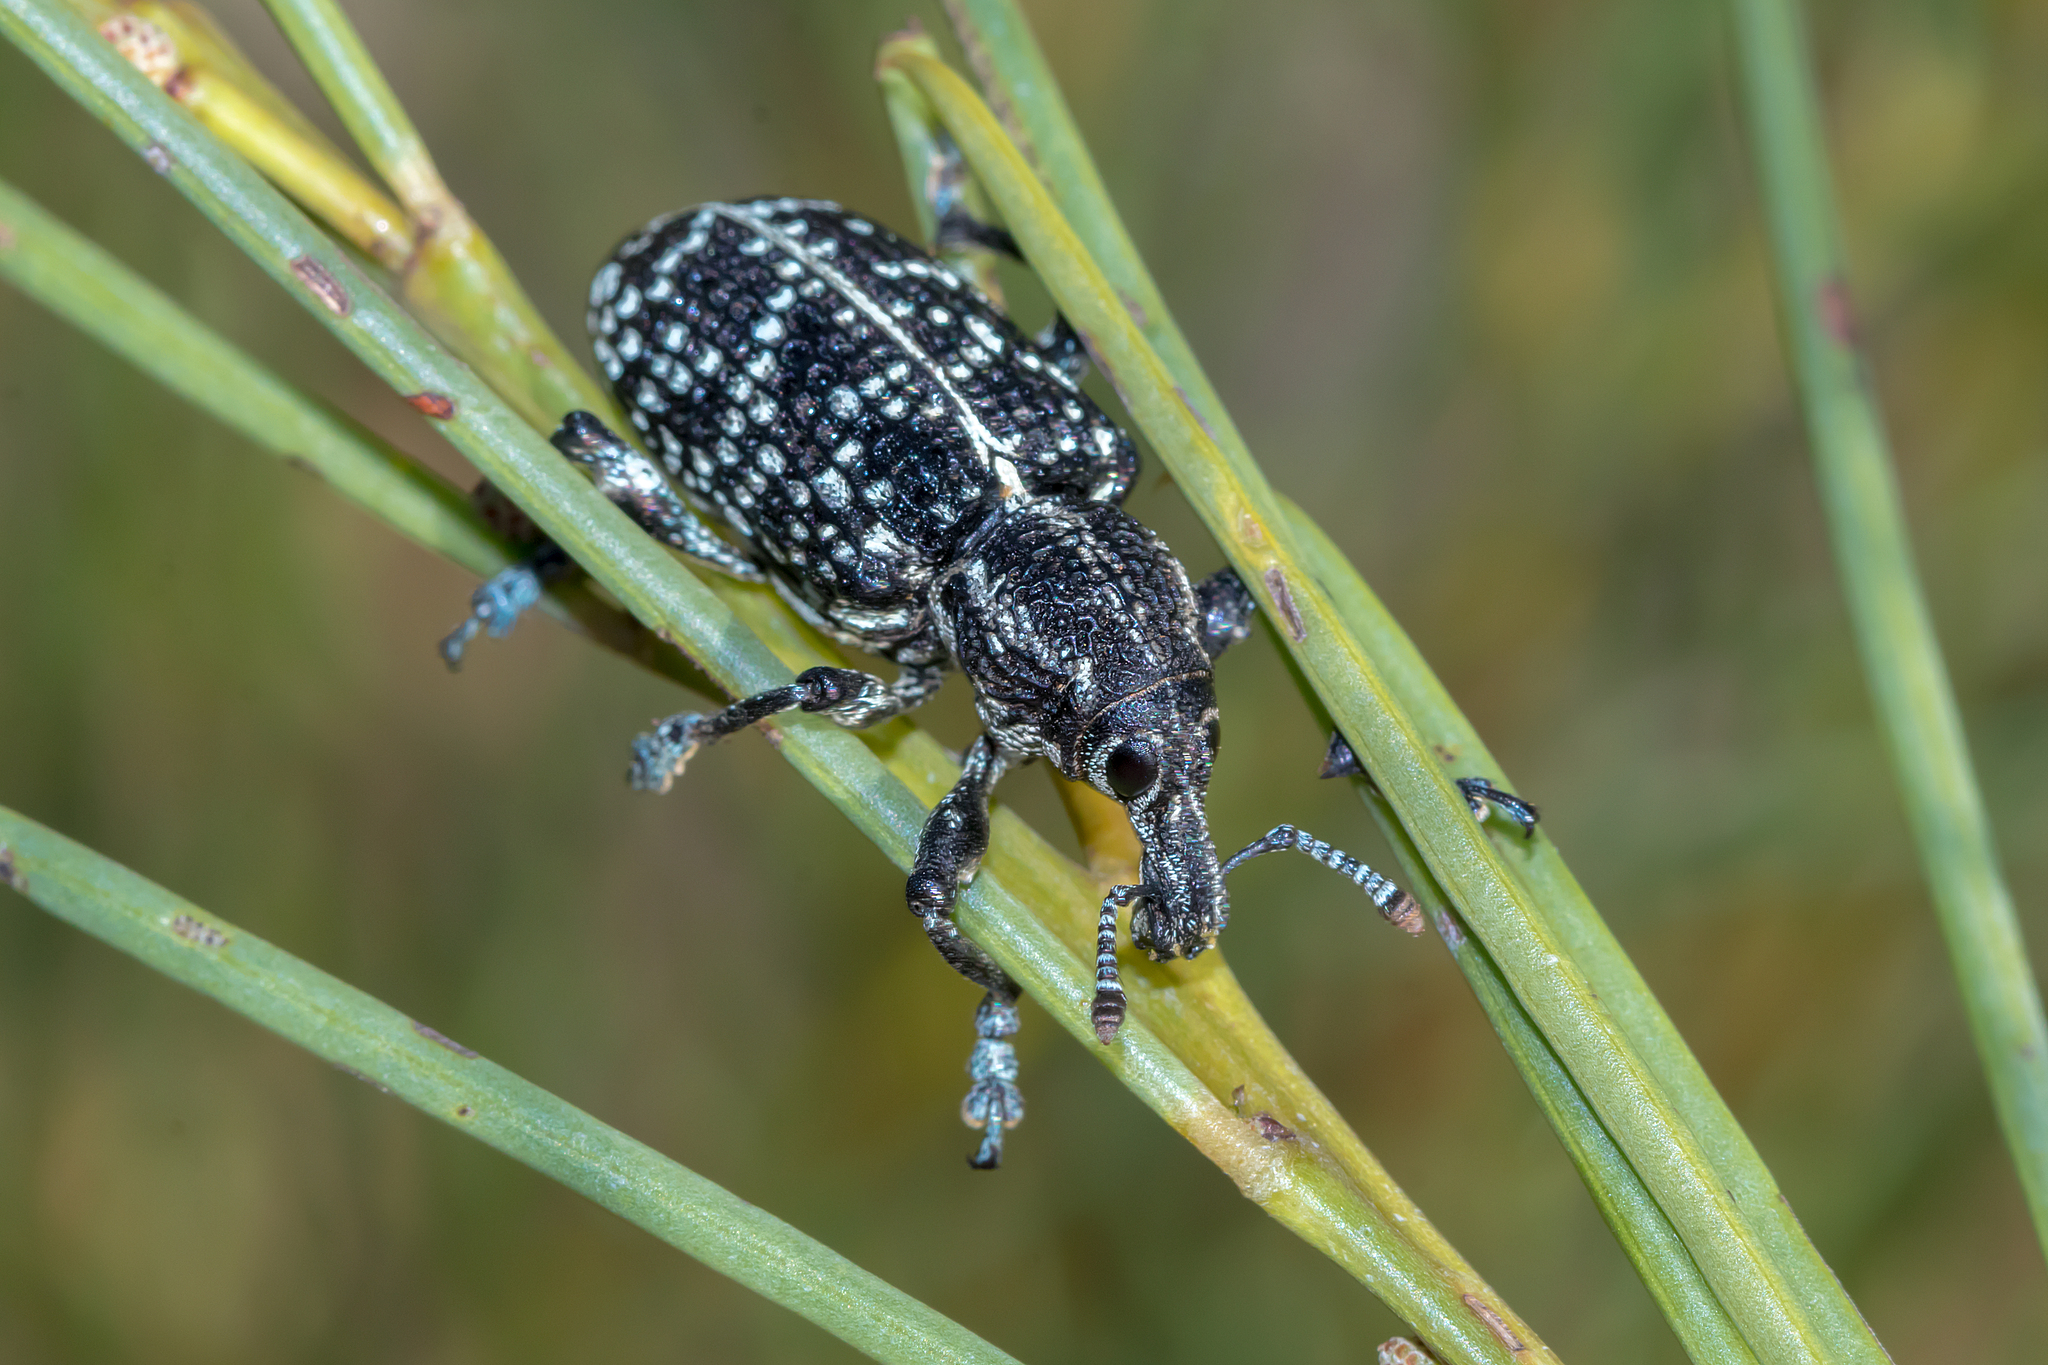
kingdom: Animalia
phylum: Arthropoda
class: Insecta
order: Coleoptera
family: Curculionidae
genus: Chrysolopus
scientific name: Chrysolopus spectabilis
